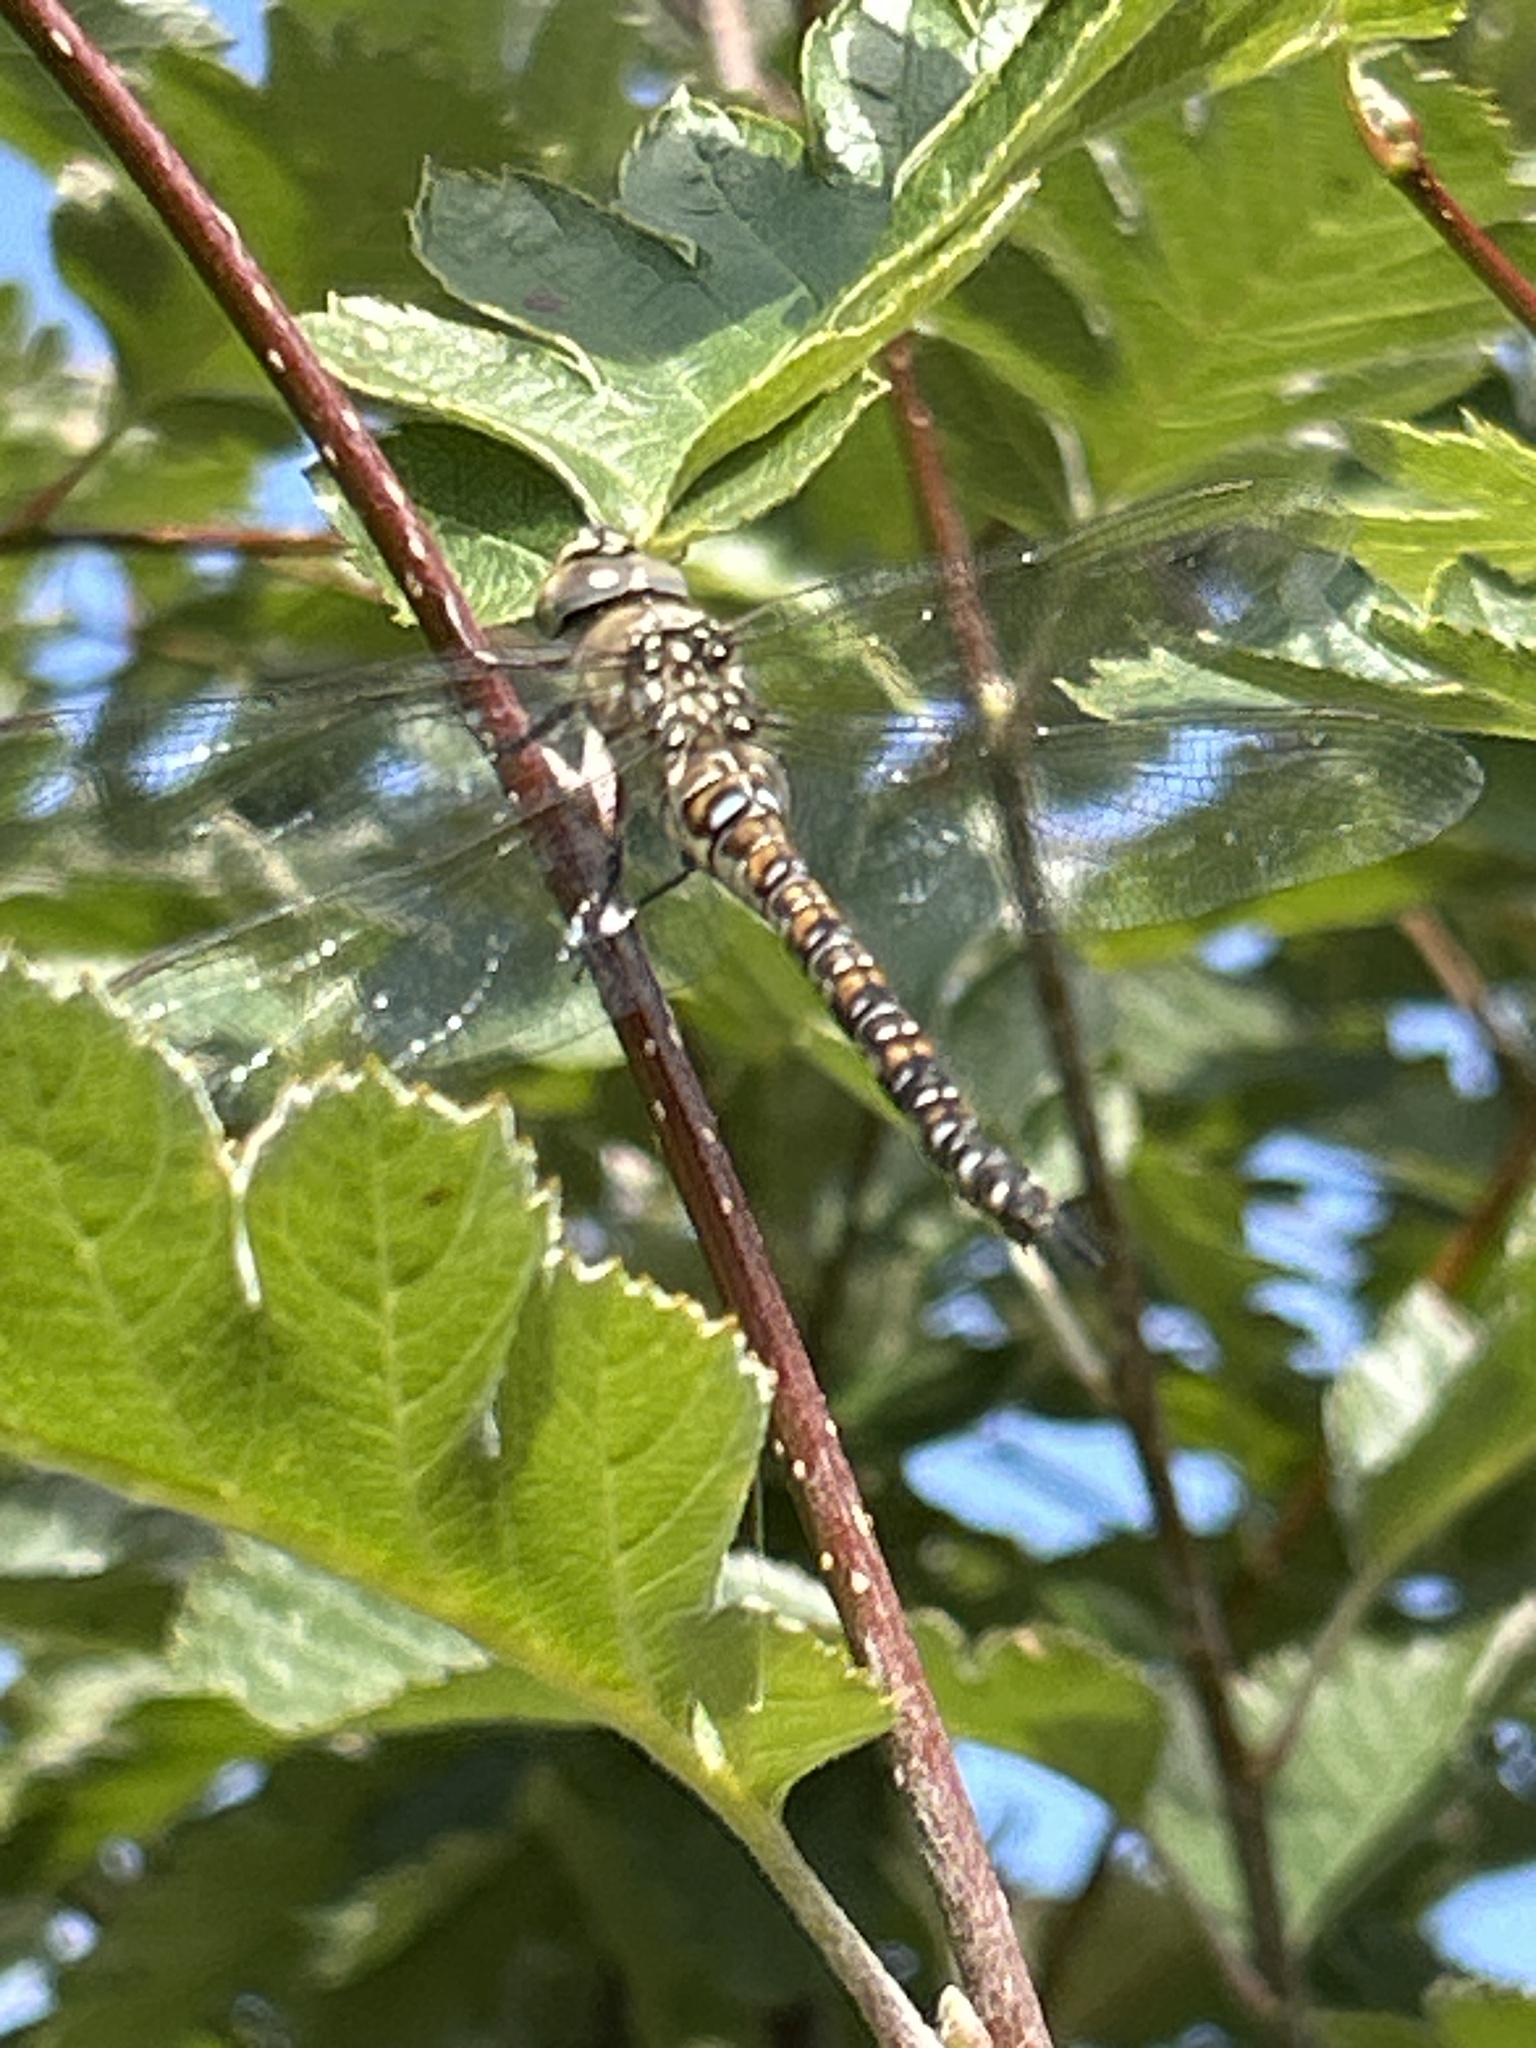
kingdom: Animalia
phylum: Arthropoda
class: Insecta
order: Odonata
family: Aeshnidae
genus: Aeshna
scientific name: Aeshna mixta
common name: Migrant hawker
